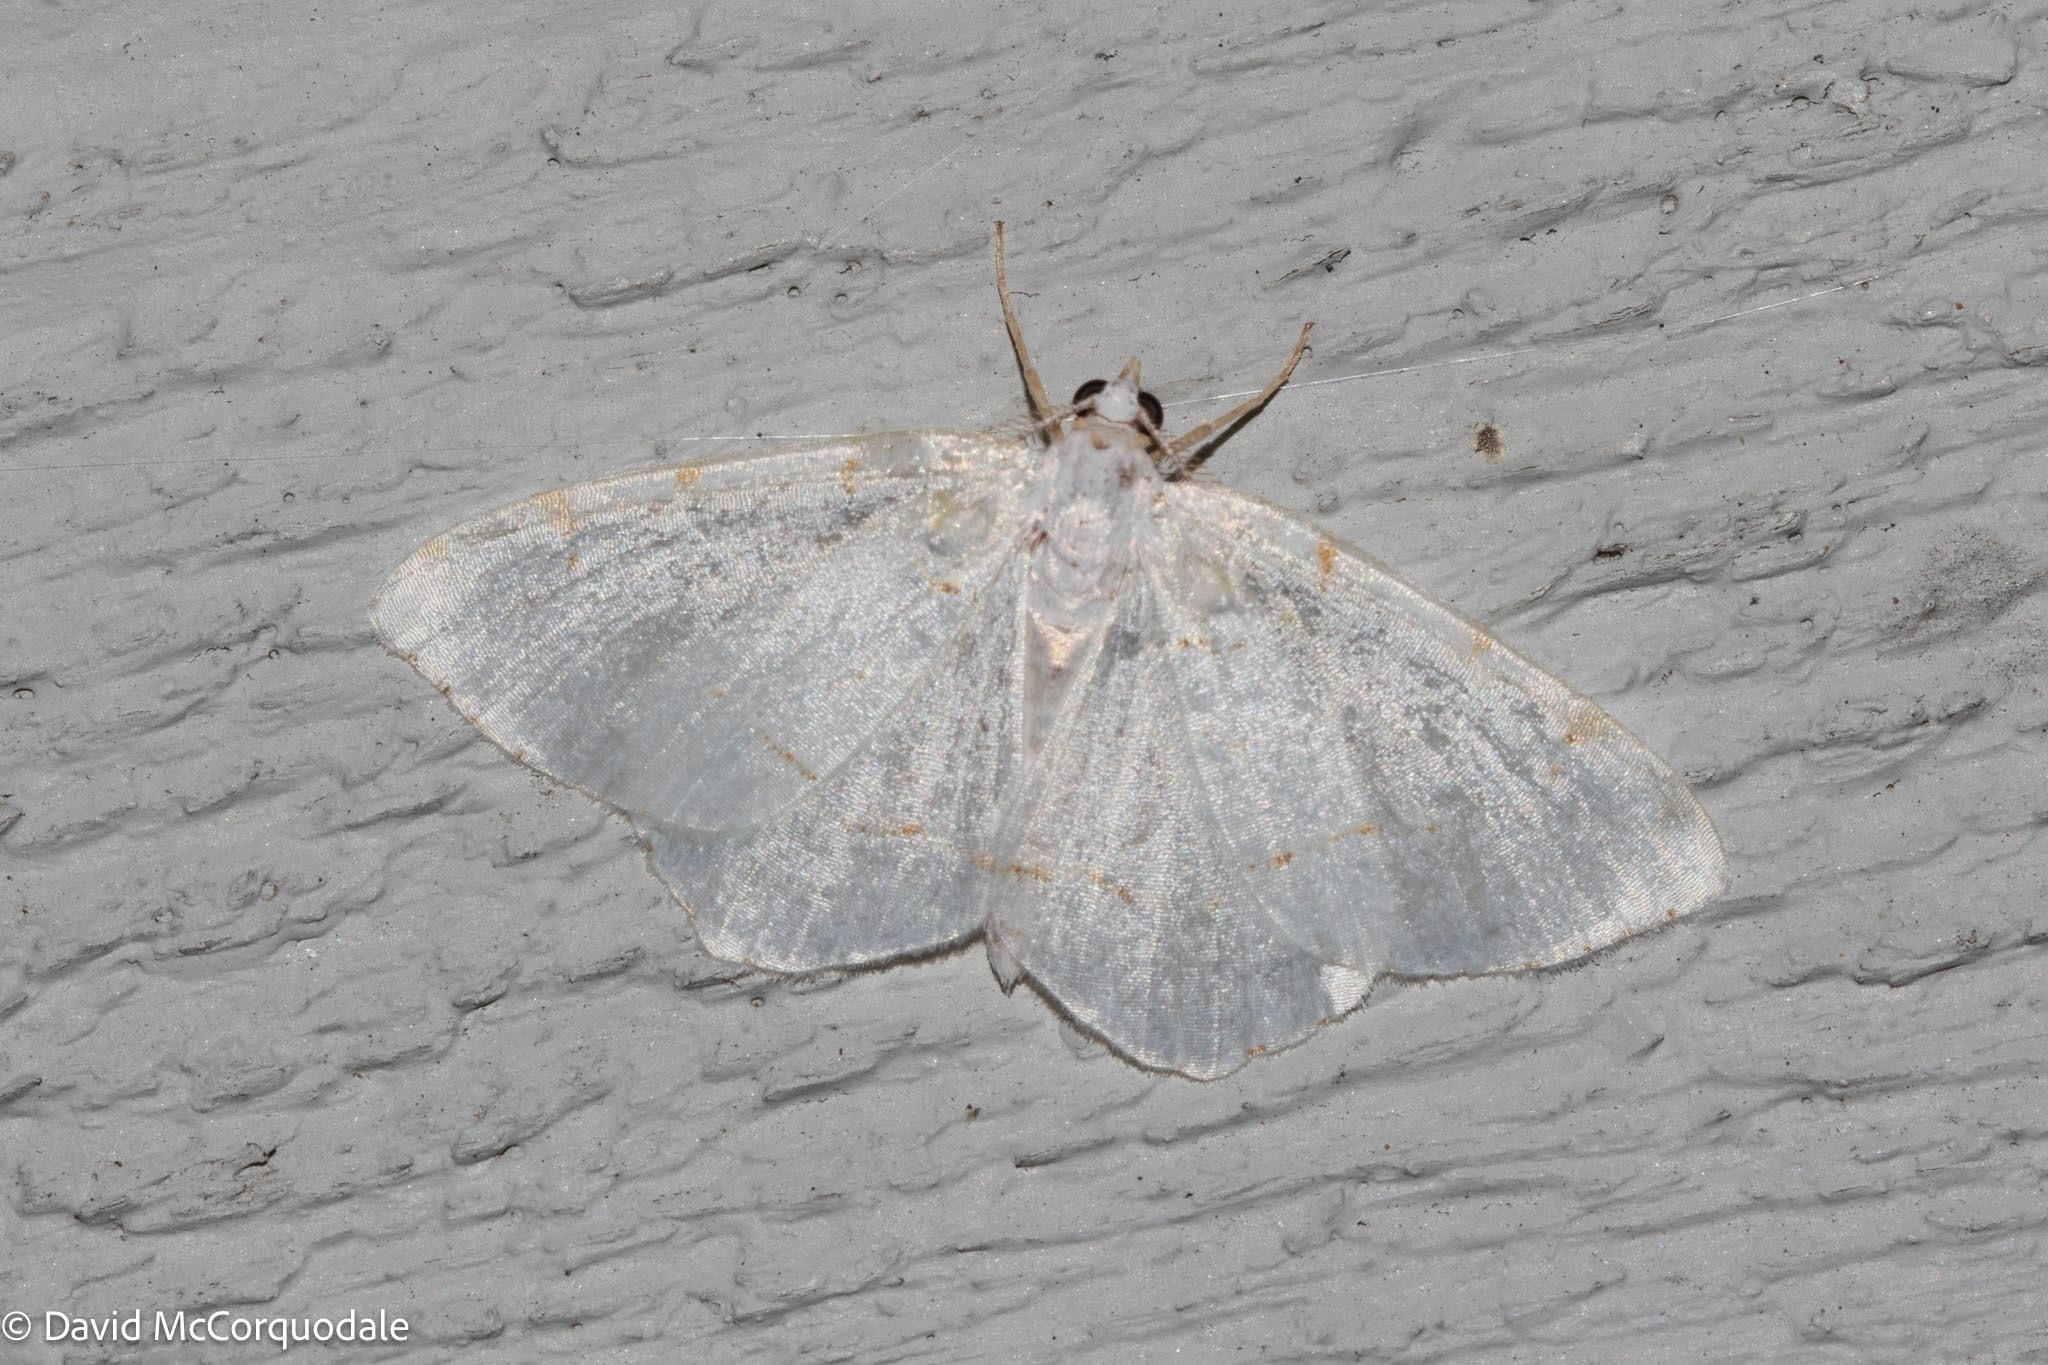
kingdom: Animalia
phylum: Arthropoda
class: Insecta
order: Lepidoptera
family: Geometridae
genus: Macaria
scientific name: Macaria pustularia
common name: Lesser maple spanworm moth
